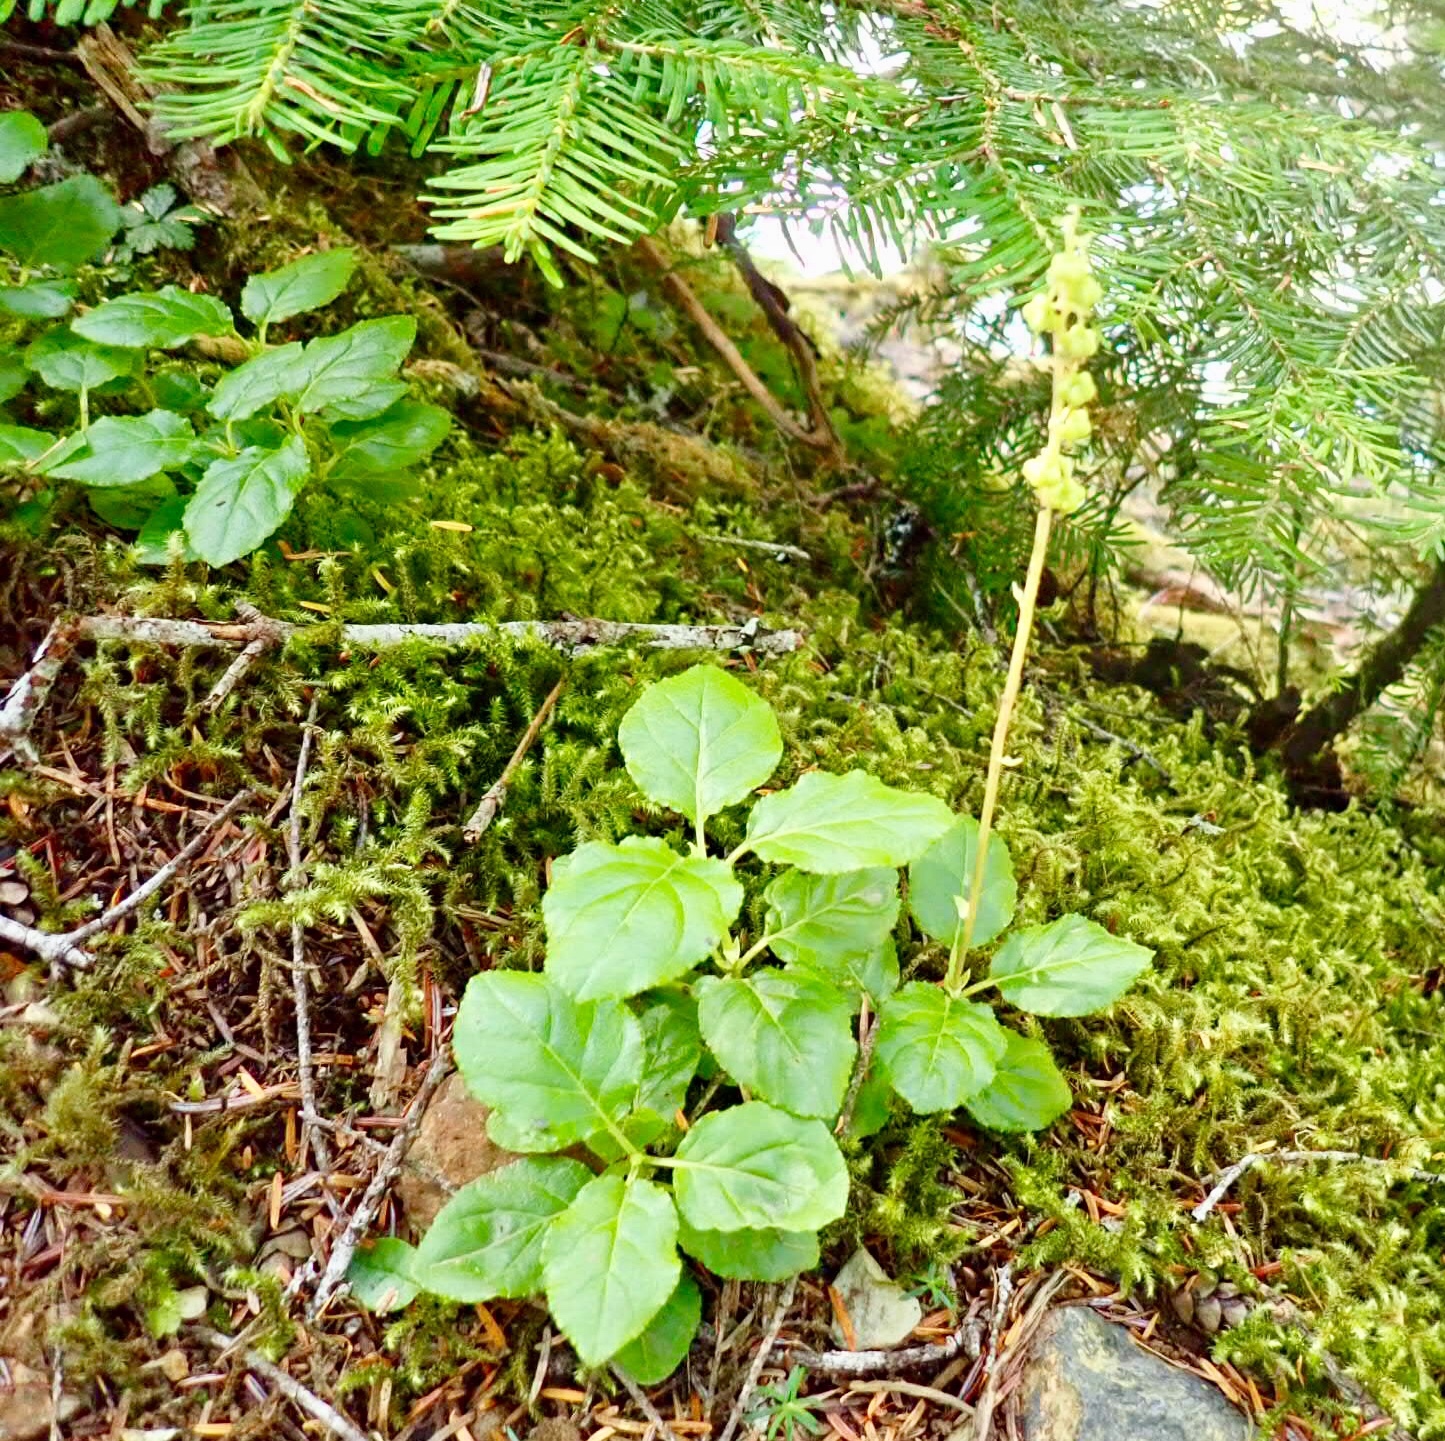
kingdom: Plantae
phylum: Tracheophyta
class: Magnoliopsida
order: Ericales
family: Ericaceae
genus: Orthilia
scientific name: Orthilia secunda
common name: One-sided orthilia
